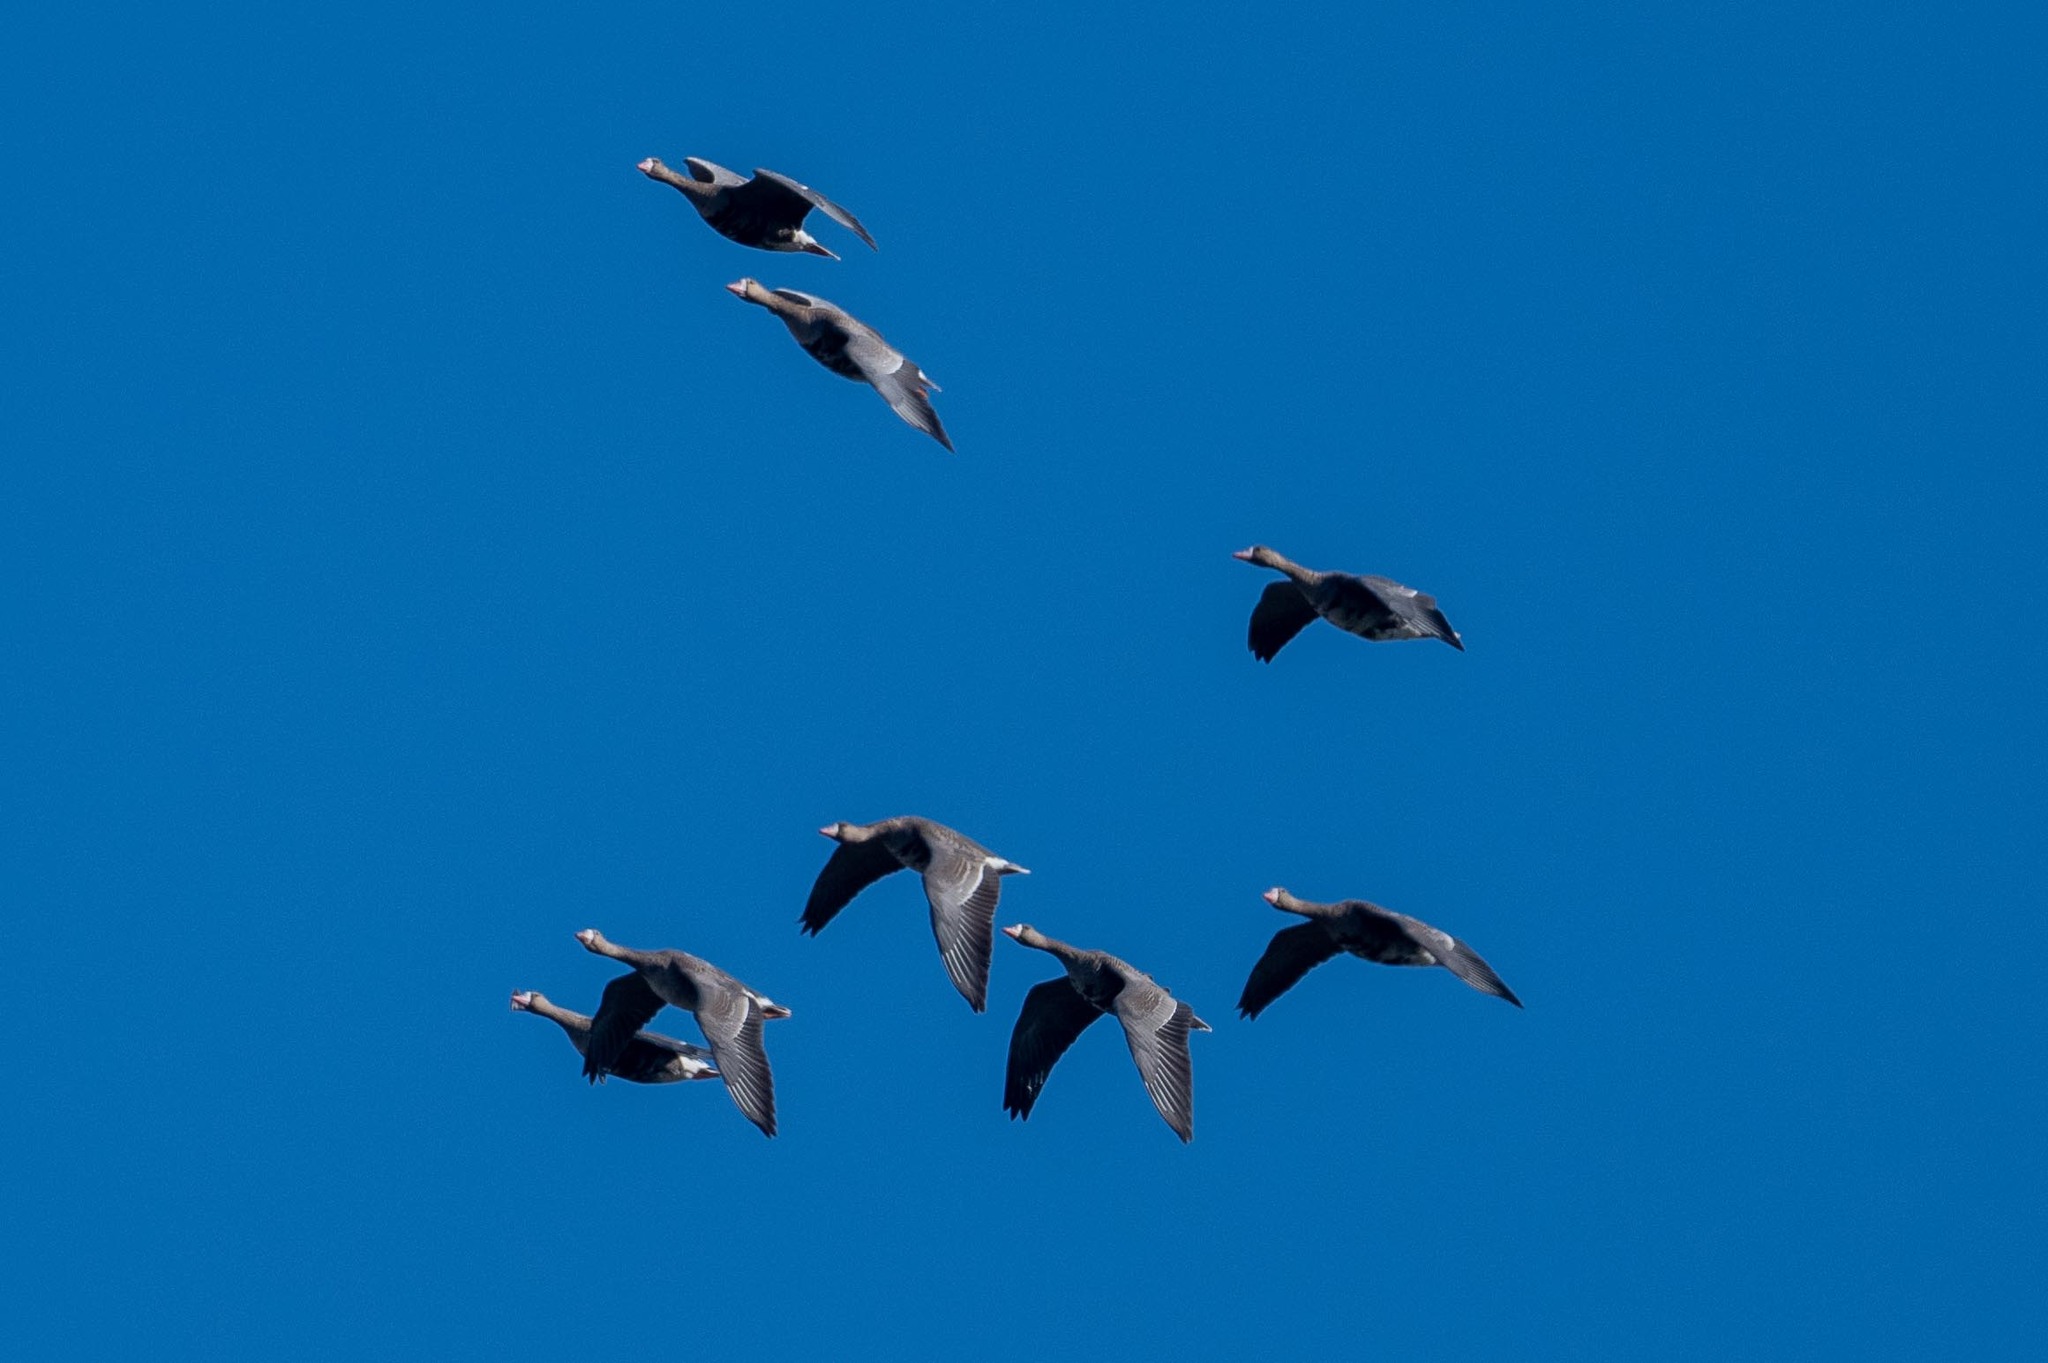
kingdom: Animalia
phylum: Chordata
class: Aves
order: Anseriformes
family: Anatidae
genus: Anser
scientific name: Anser albifrons
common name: Greater white-fronted goose
